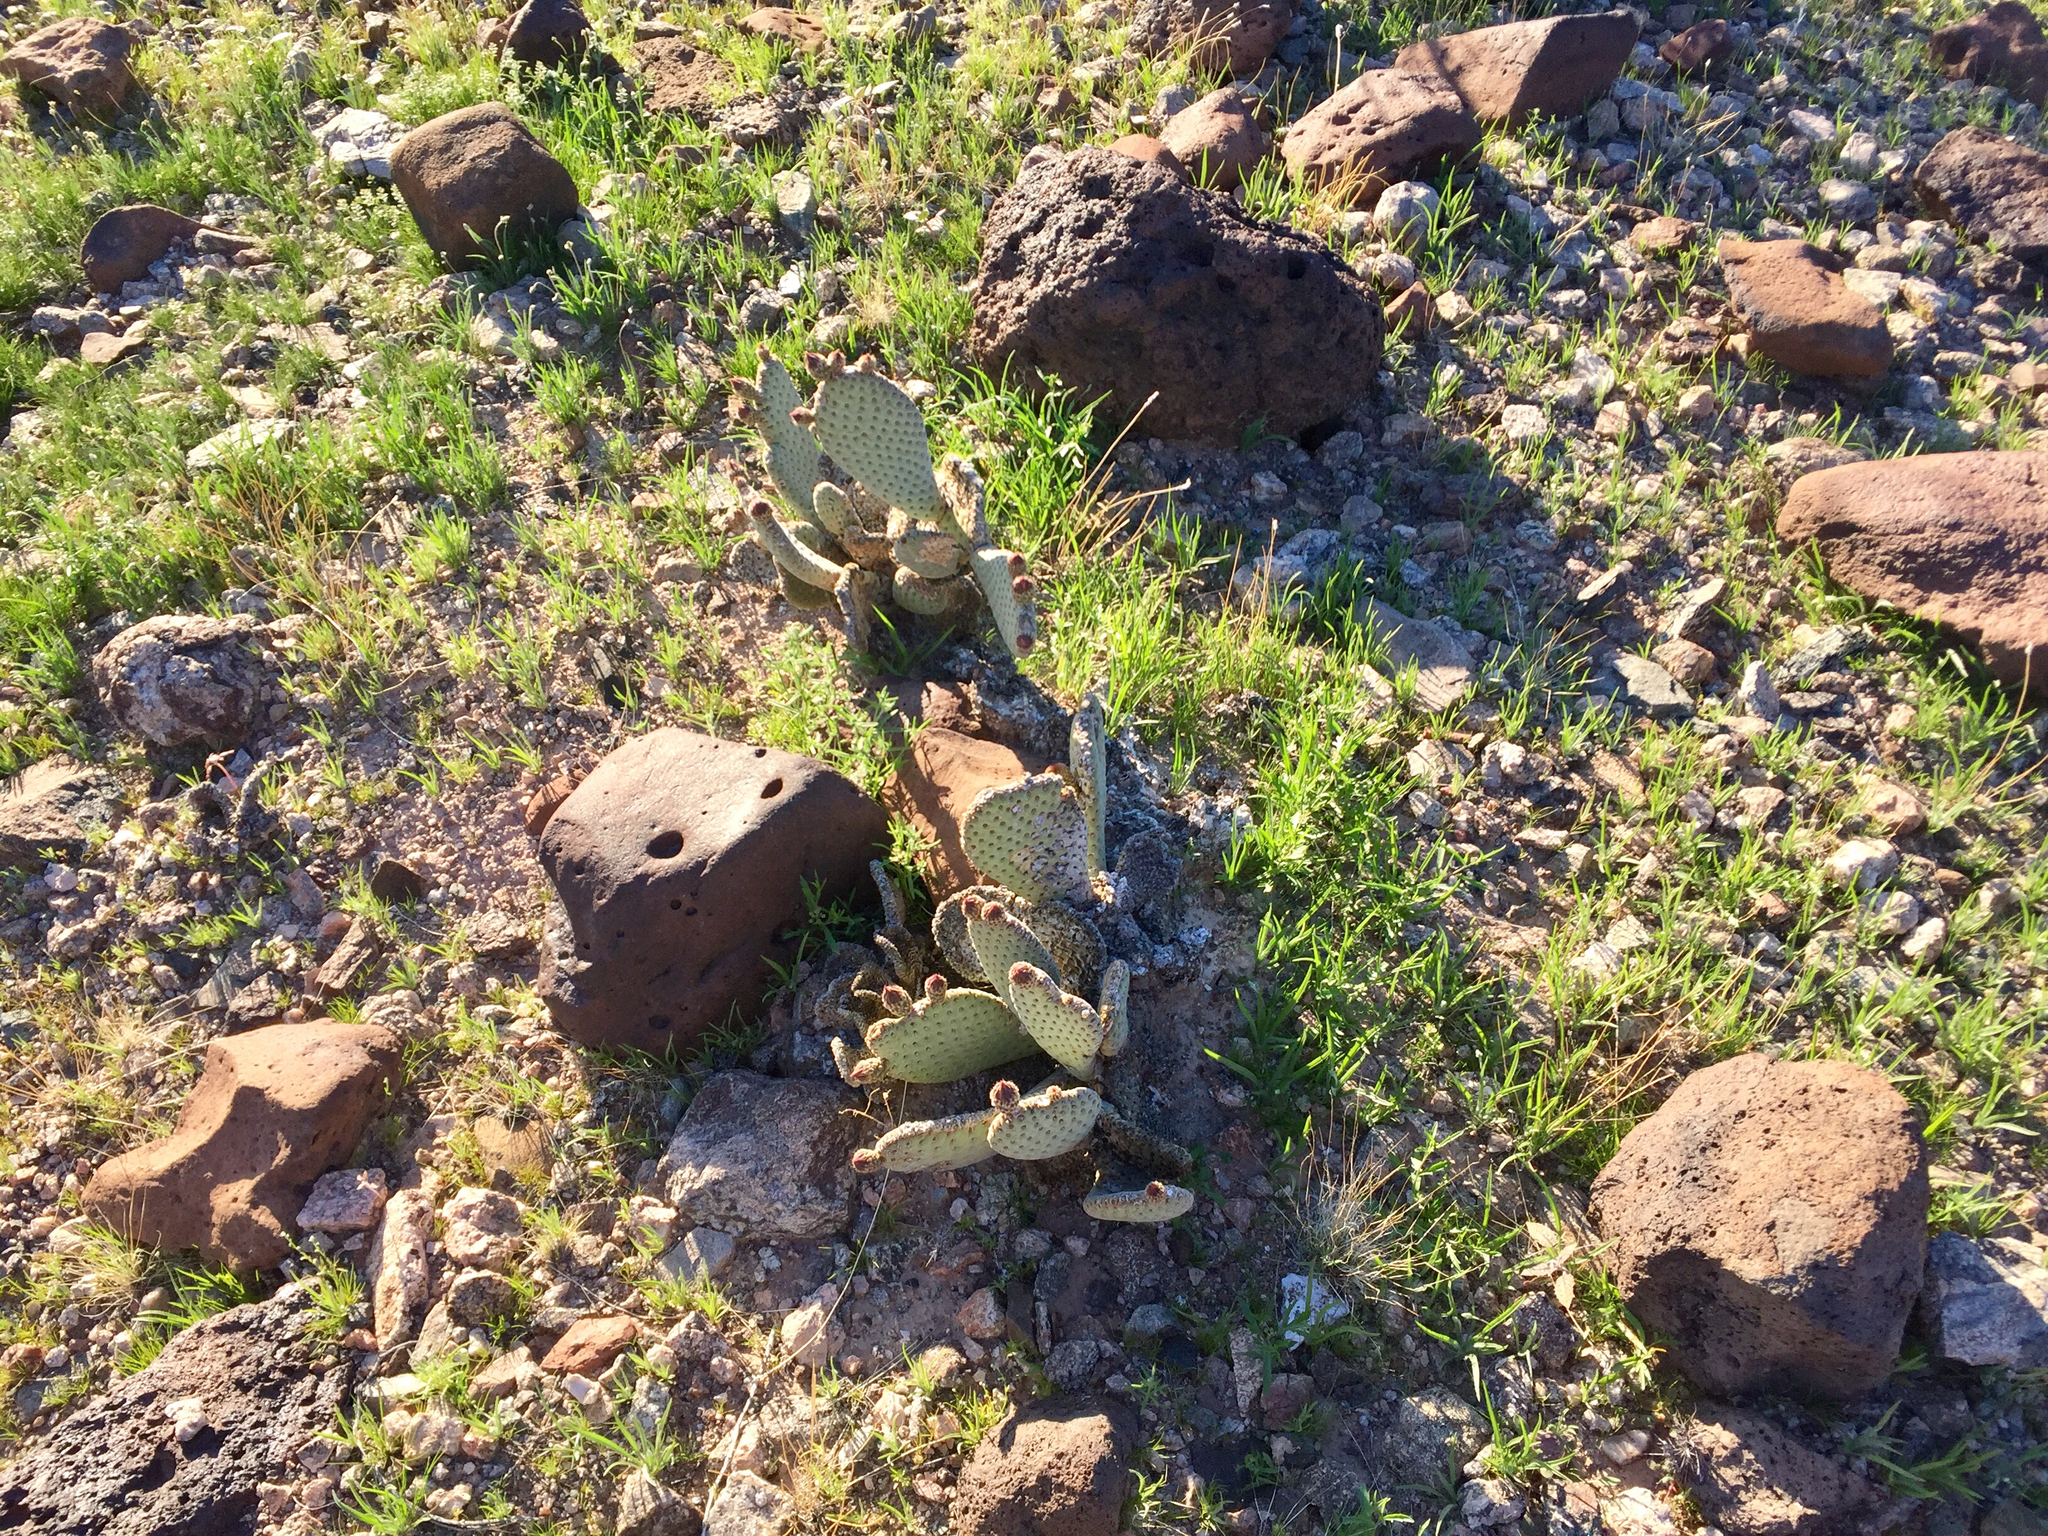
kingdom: Plantae
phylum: Tracheophyta
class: Magnoliopsida
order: Caryophyllales
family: Cactaceae
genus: Opuntia
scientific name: Opuntia basilaris
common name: Beavertail prickly-pear
